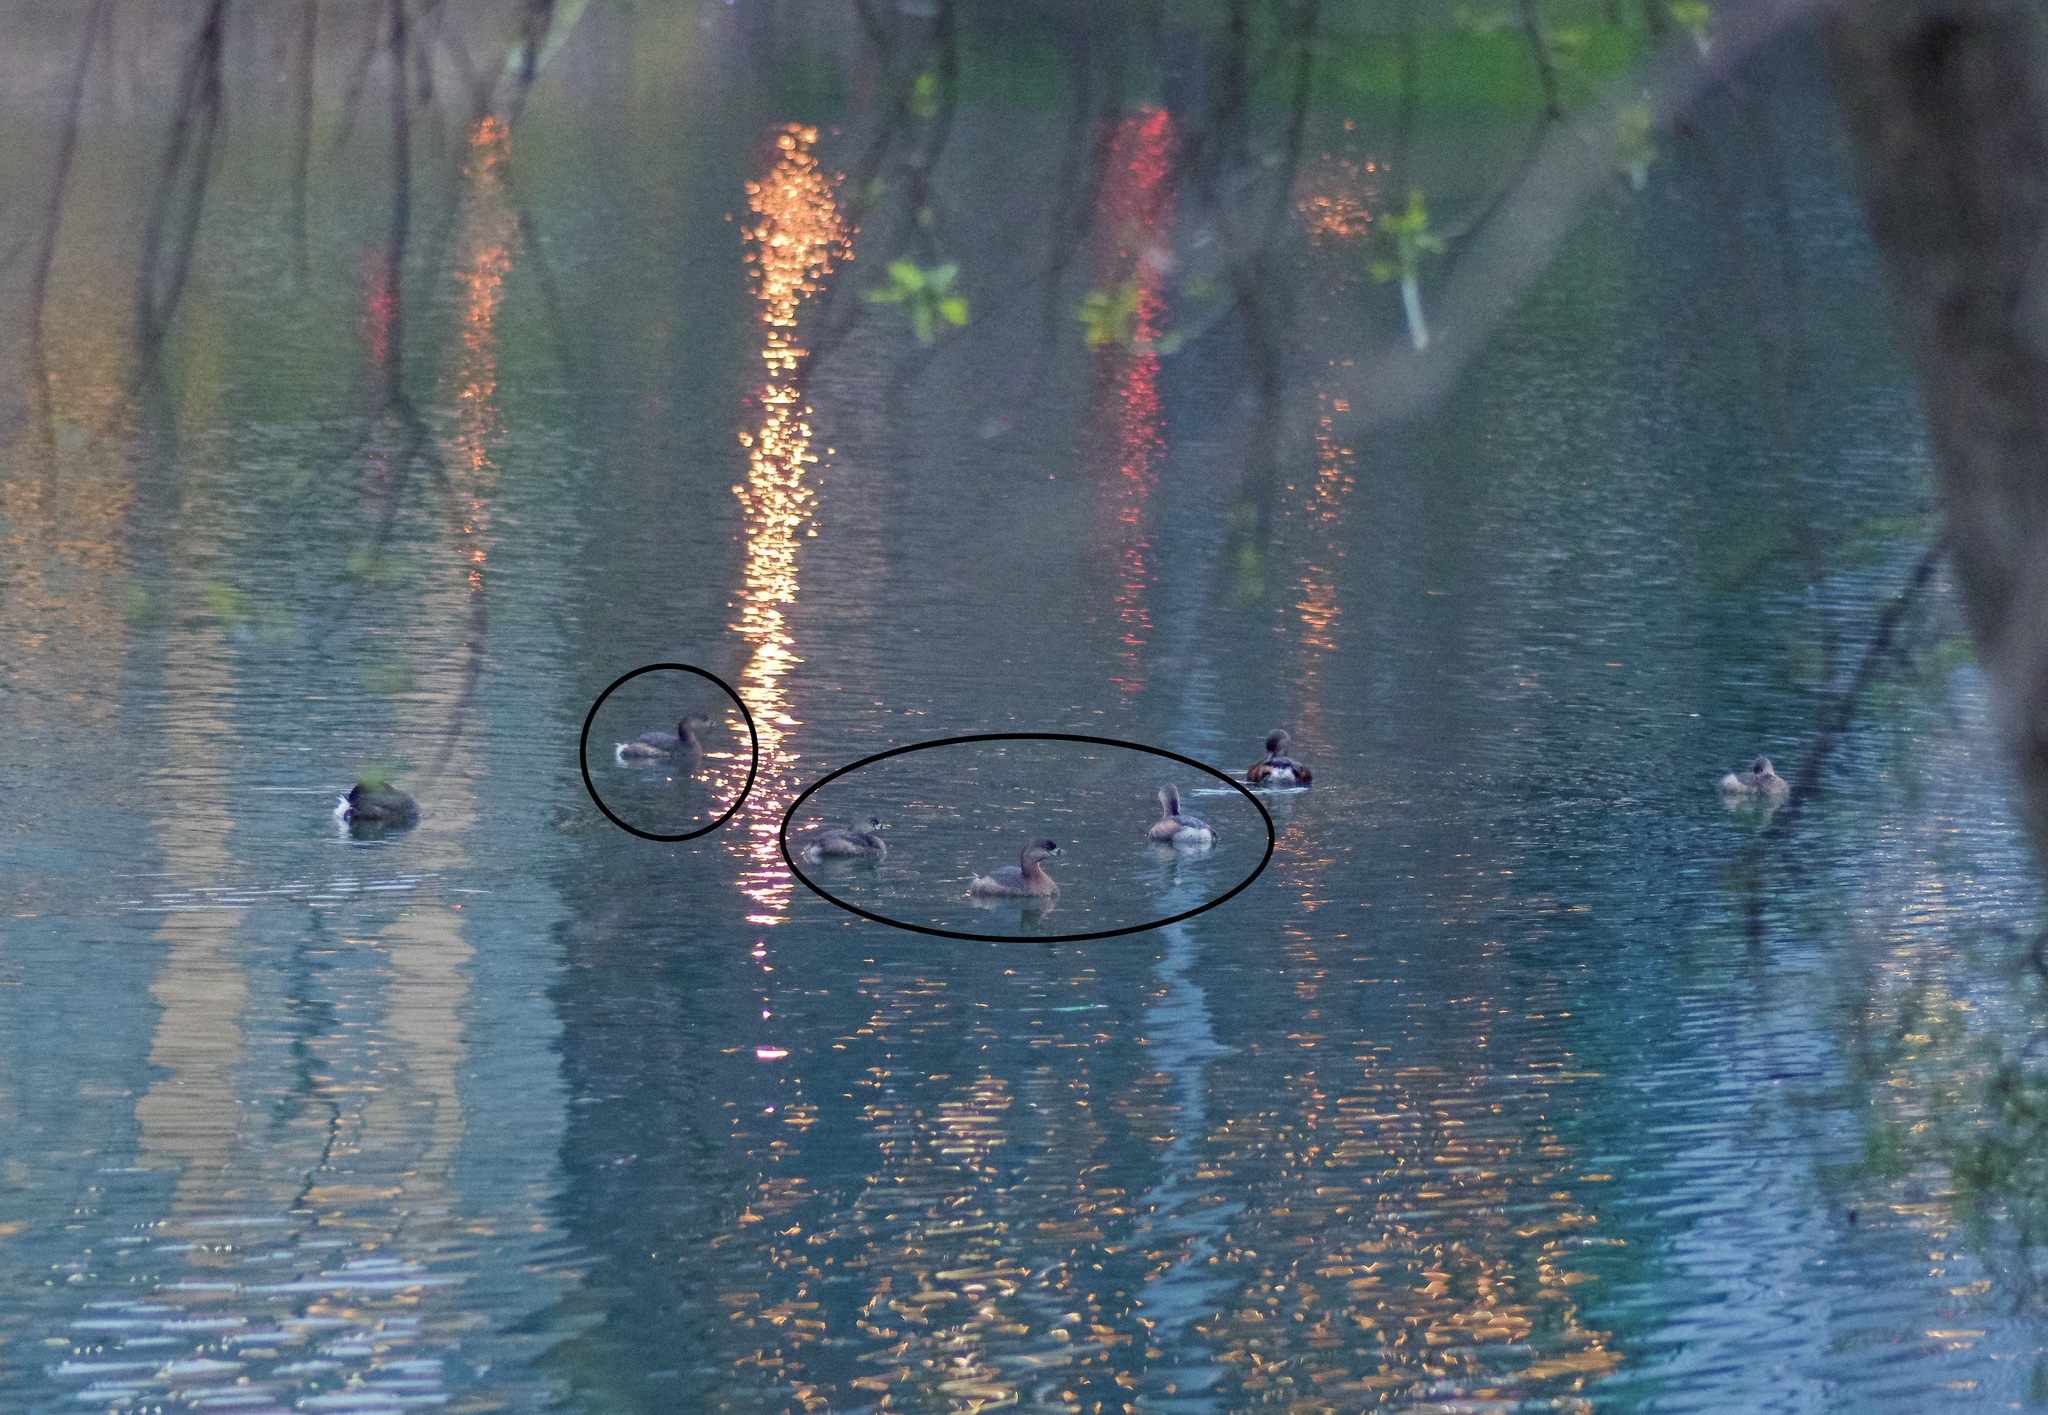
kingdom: Animalia
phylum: Chordata
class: Aves
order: Podicipediformes
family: Podicipedidae
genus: Podilymbus
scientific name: Podilymbus podiceps
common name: Pied-billed grebe
